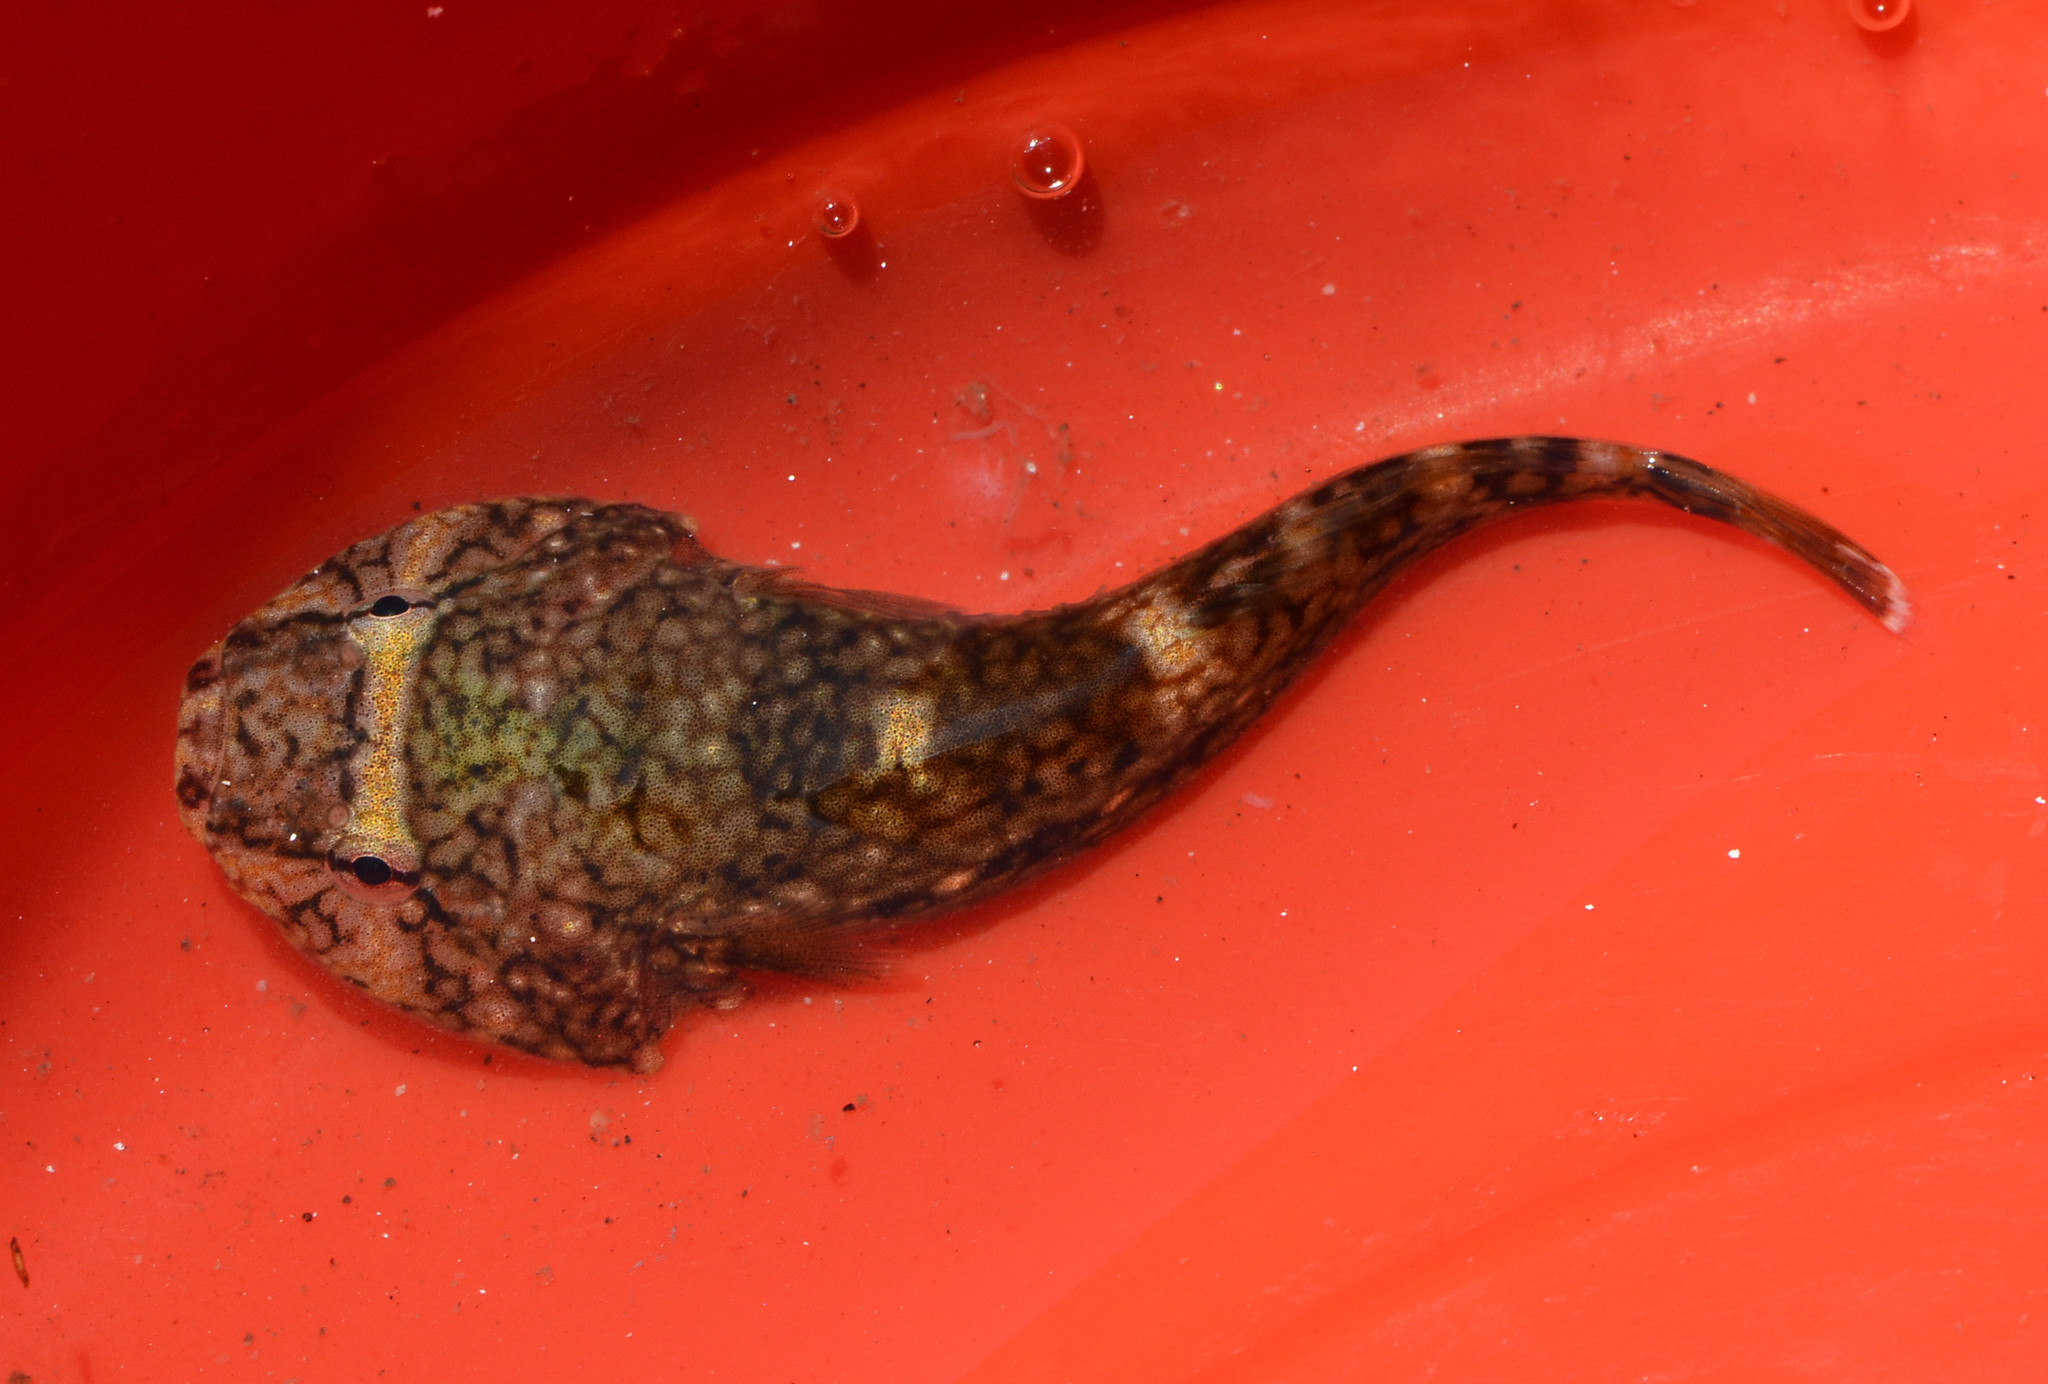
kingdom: Animalia
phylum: Chordata
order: Gobiesociformes
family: Gobiesocidae
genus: Gobiesox
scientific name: Gobiesox maeandricus
